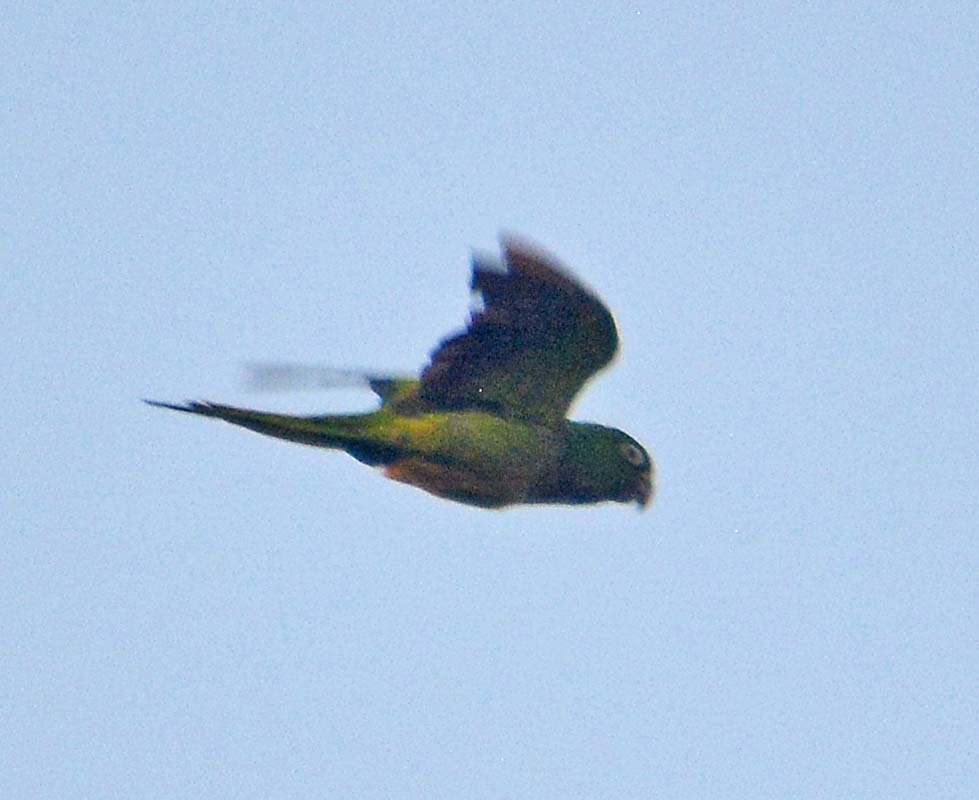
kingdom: Animalia
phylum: Chordata
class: Aves
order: Psittaciformes
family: Psittacidae
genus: Aratinga
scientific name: Aratinga nana
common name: Olive-throated parakeet
